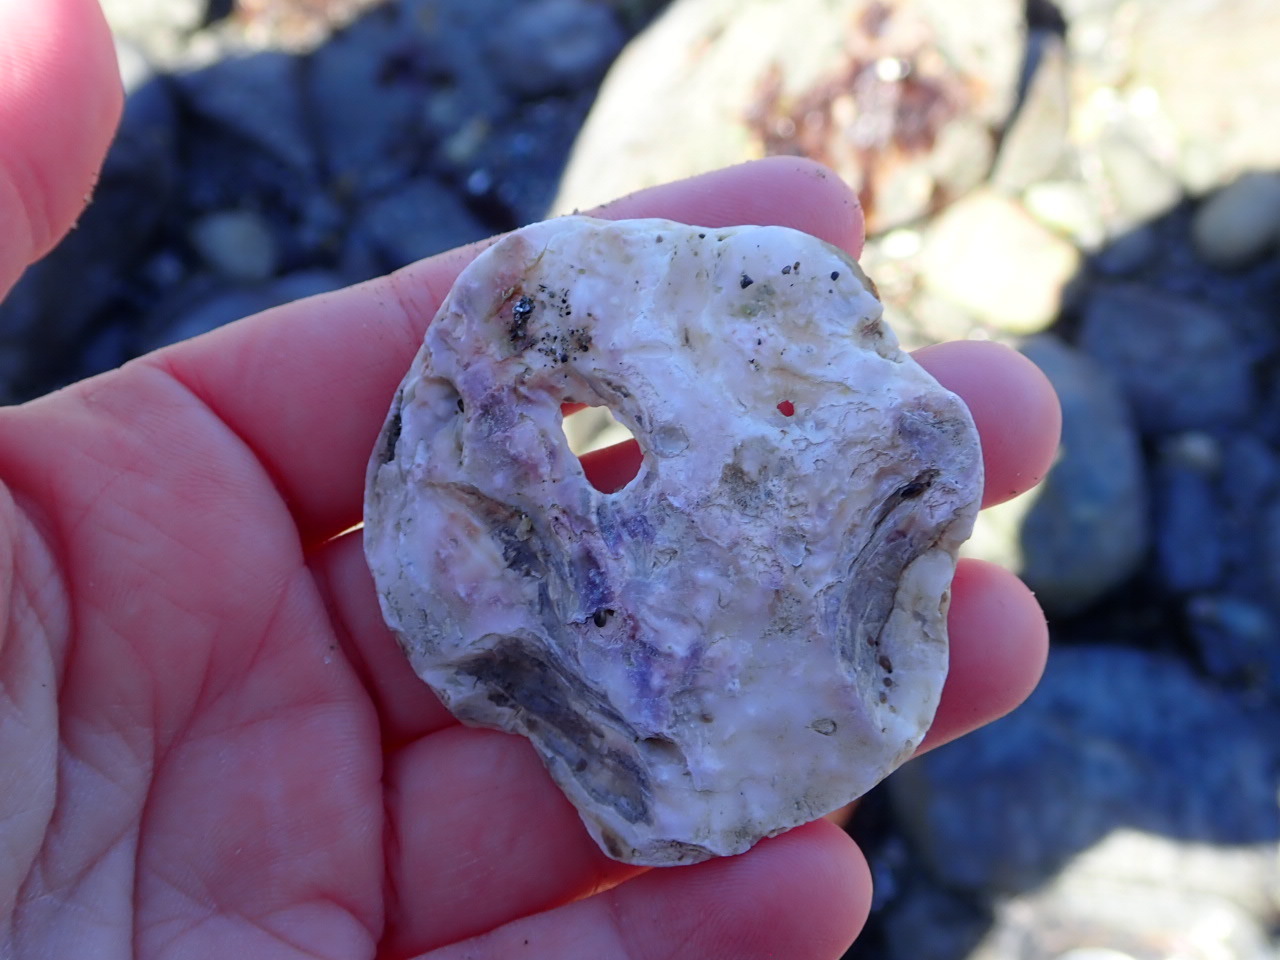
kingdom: Animalia
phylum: Mollusca
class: Bivalvia
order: Ostreida
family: Ostreidae
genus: Ostrea
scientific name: Ostrea edulis
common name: Flat oyster
